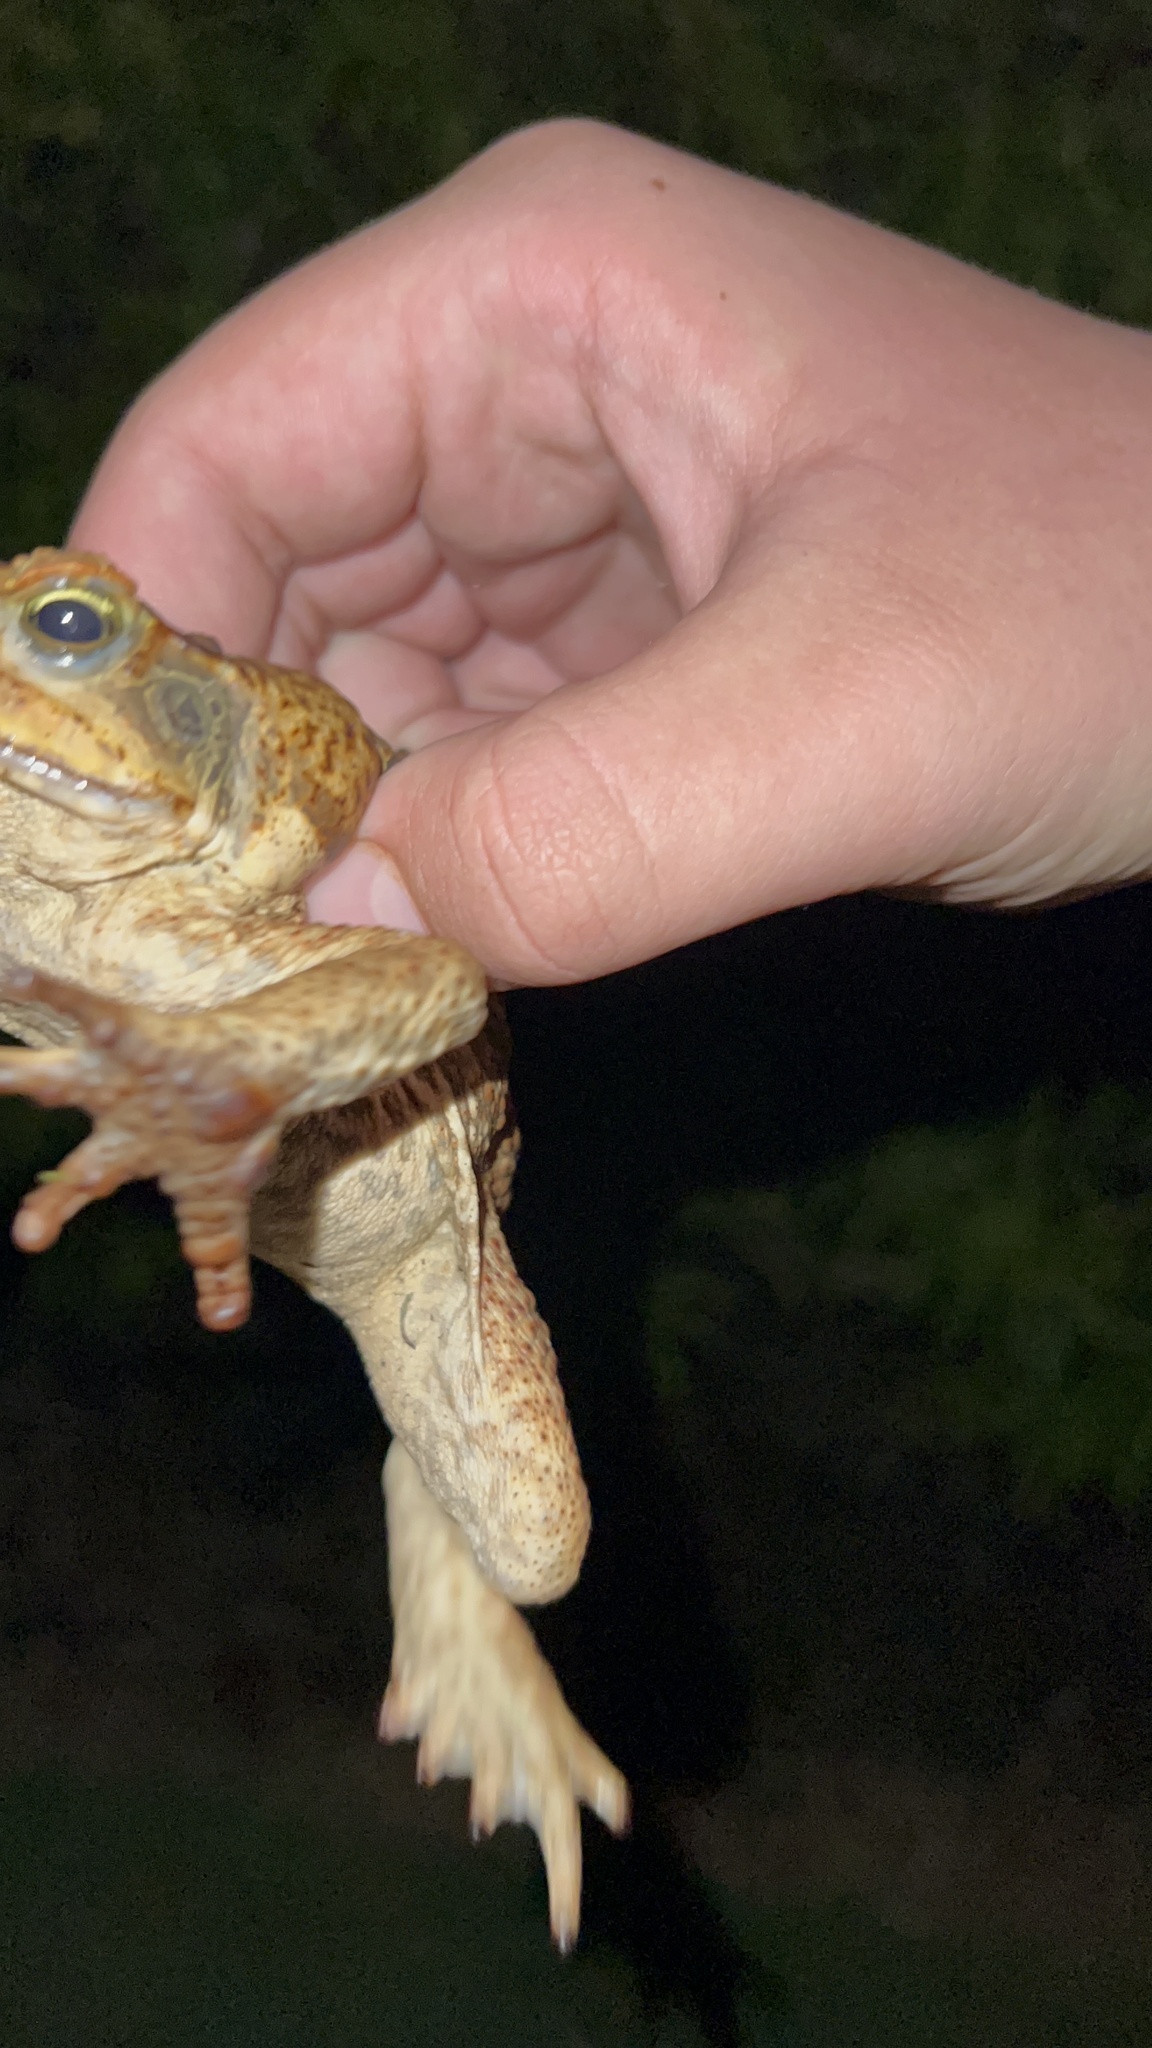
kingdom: Animalia
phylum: Chordata
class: Amphibia
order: Anura
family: Bufonidae
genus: Rhinella
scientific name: Rhinella marina
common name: Cane toad
